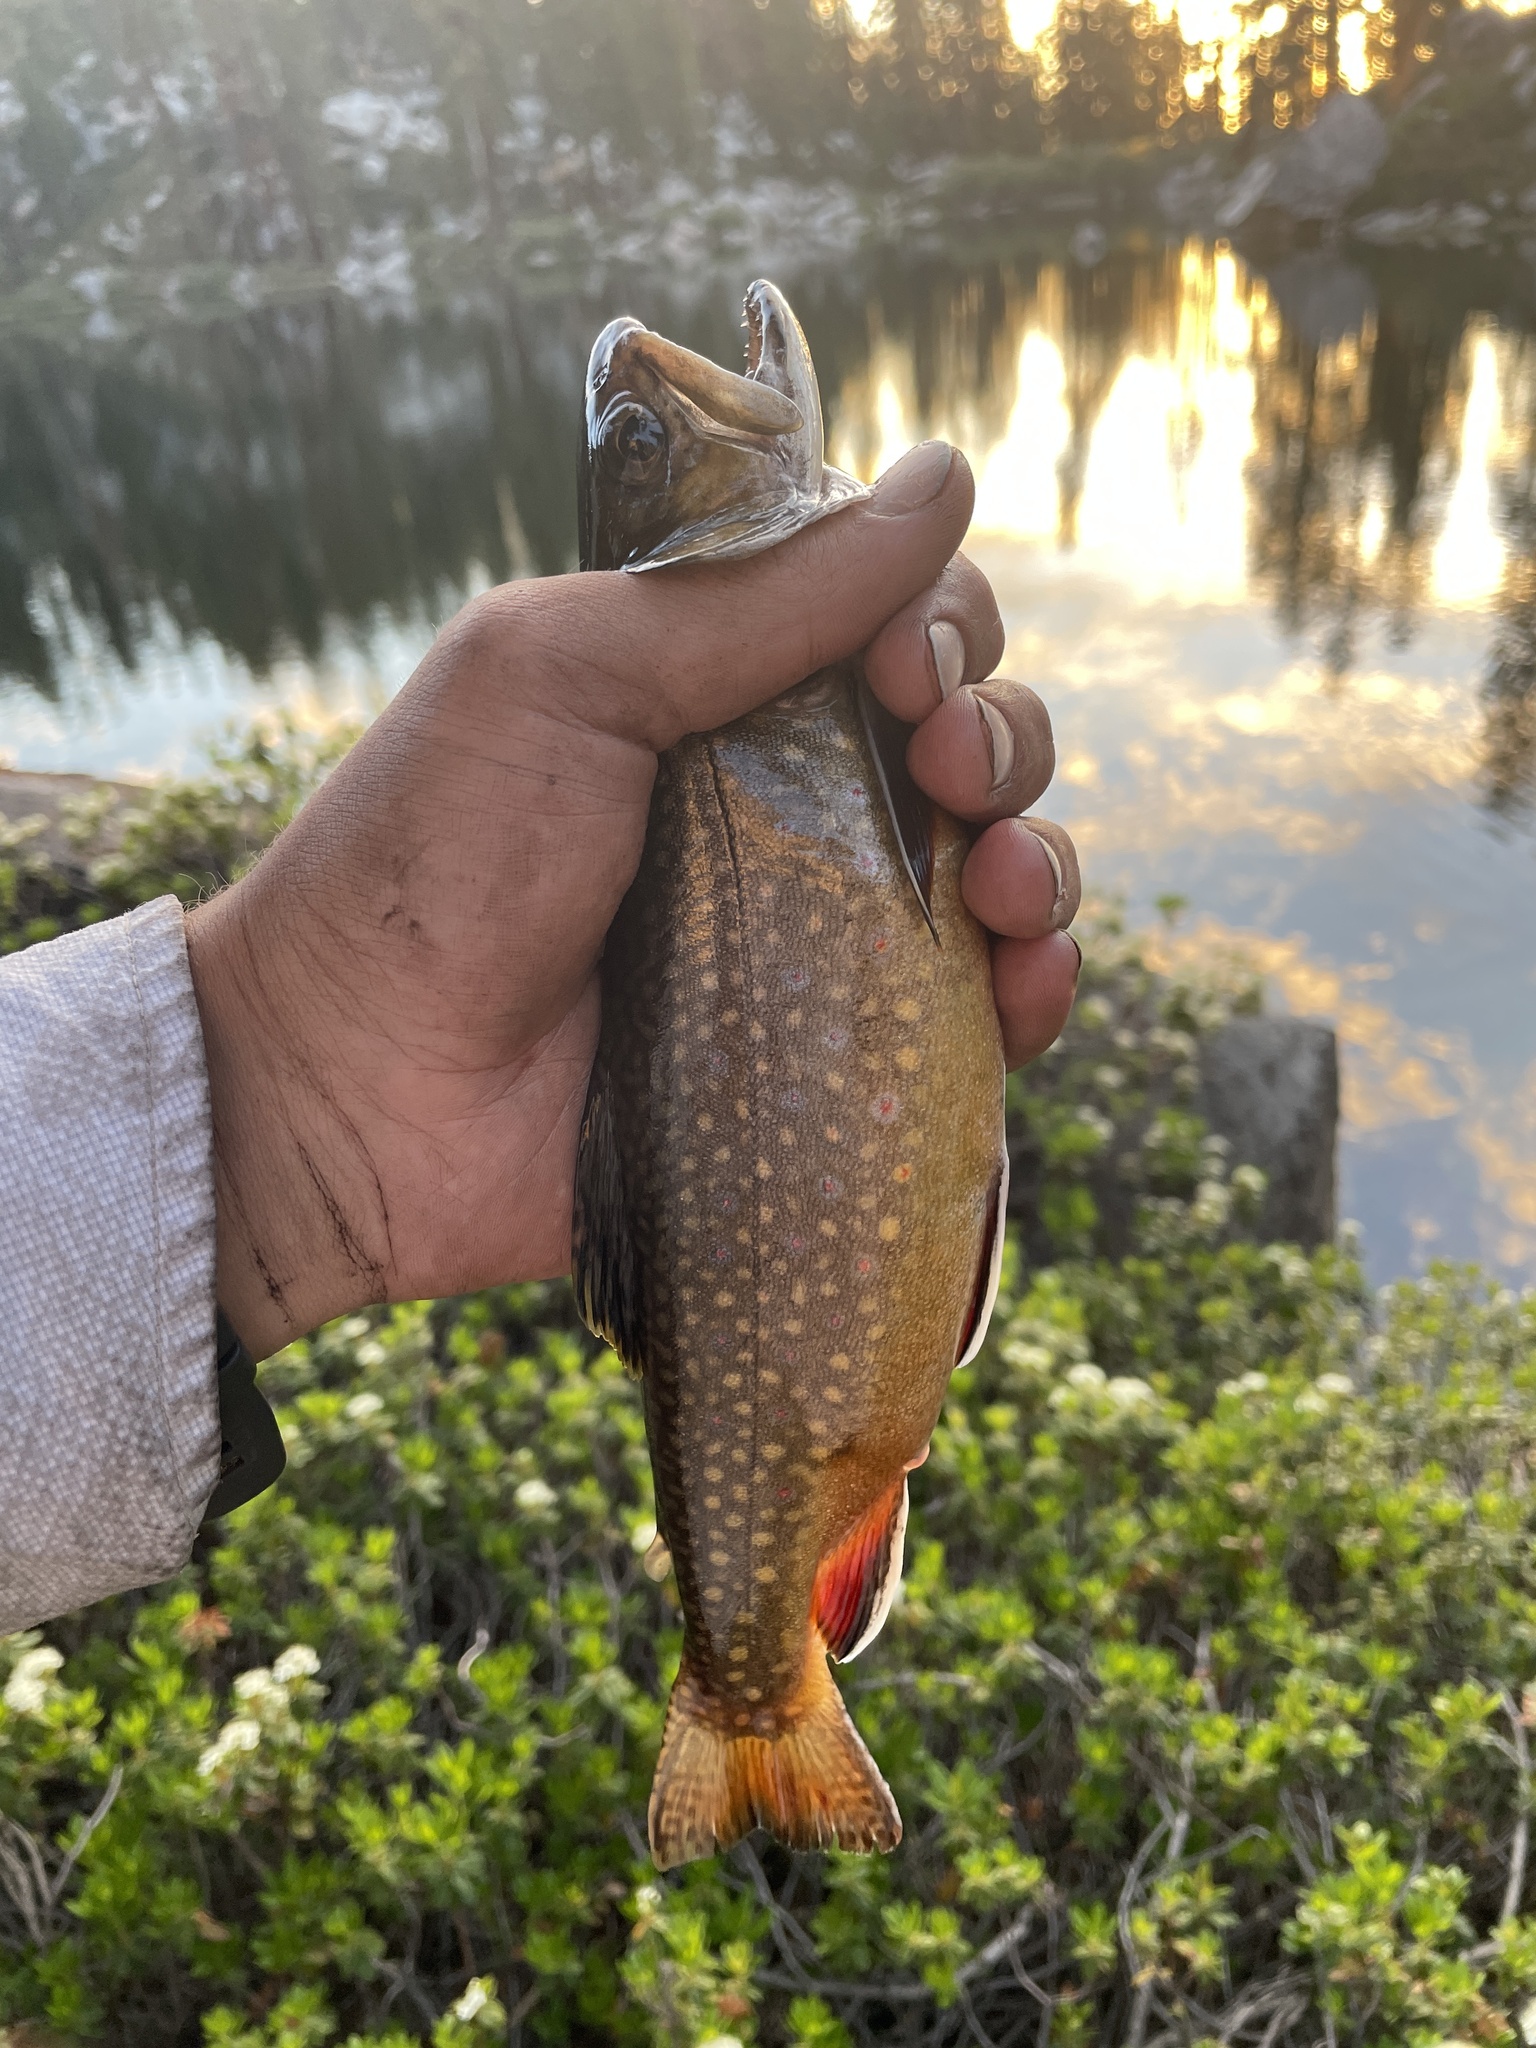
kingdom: Animalia
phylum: Chordata
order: Salmoniformes
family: Salmonidae
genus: Salvelinus
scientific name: Salvelinus fontinalis
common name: Brook trout
